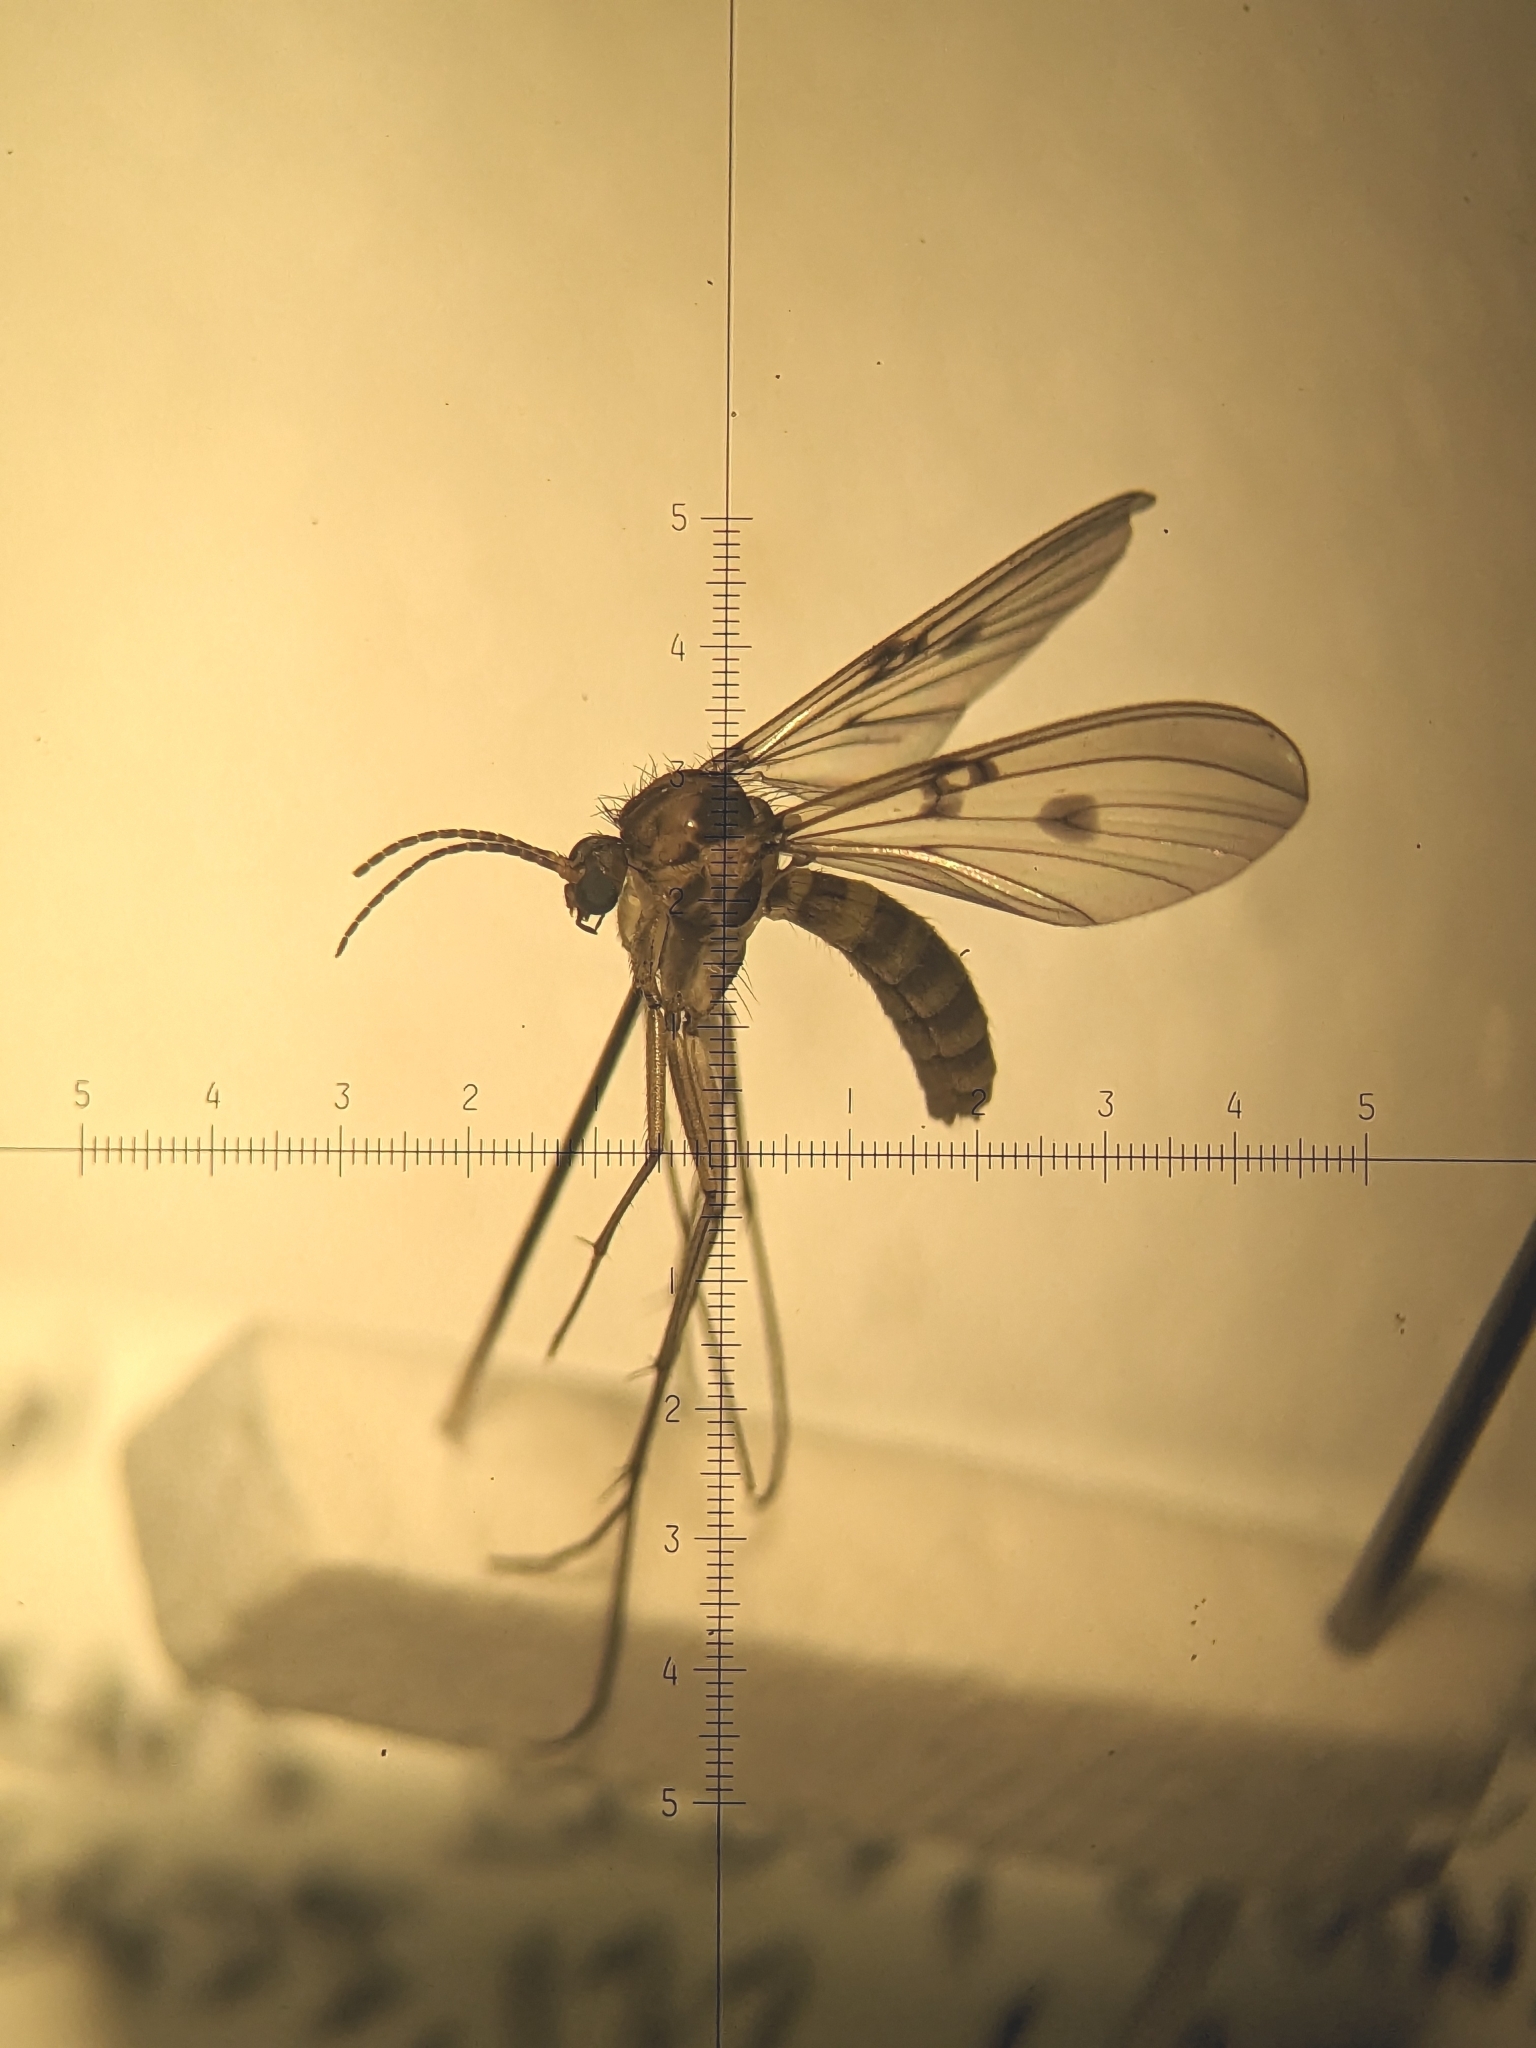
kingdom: Animalia
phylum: Arthropoda
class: Insecta
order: Diptera
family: Mycetophilidae
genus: Mycomya
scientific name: Mycomya quadrimaculata
